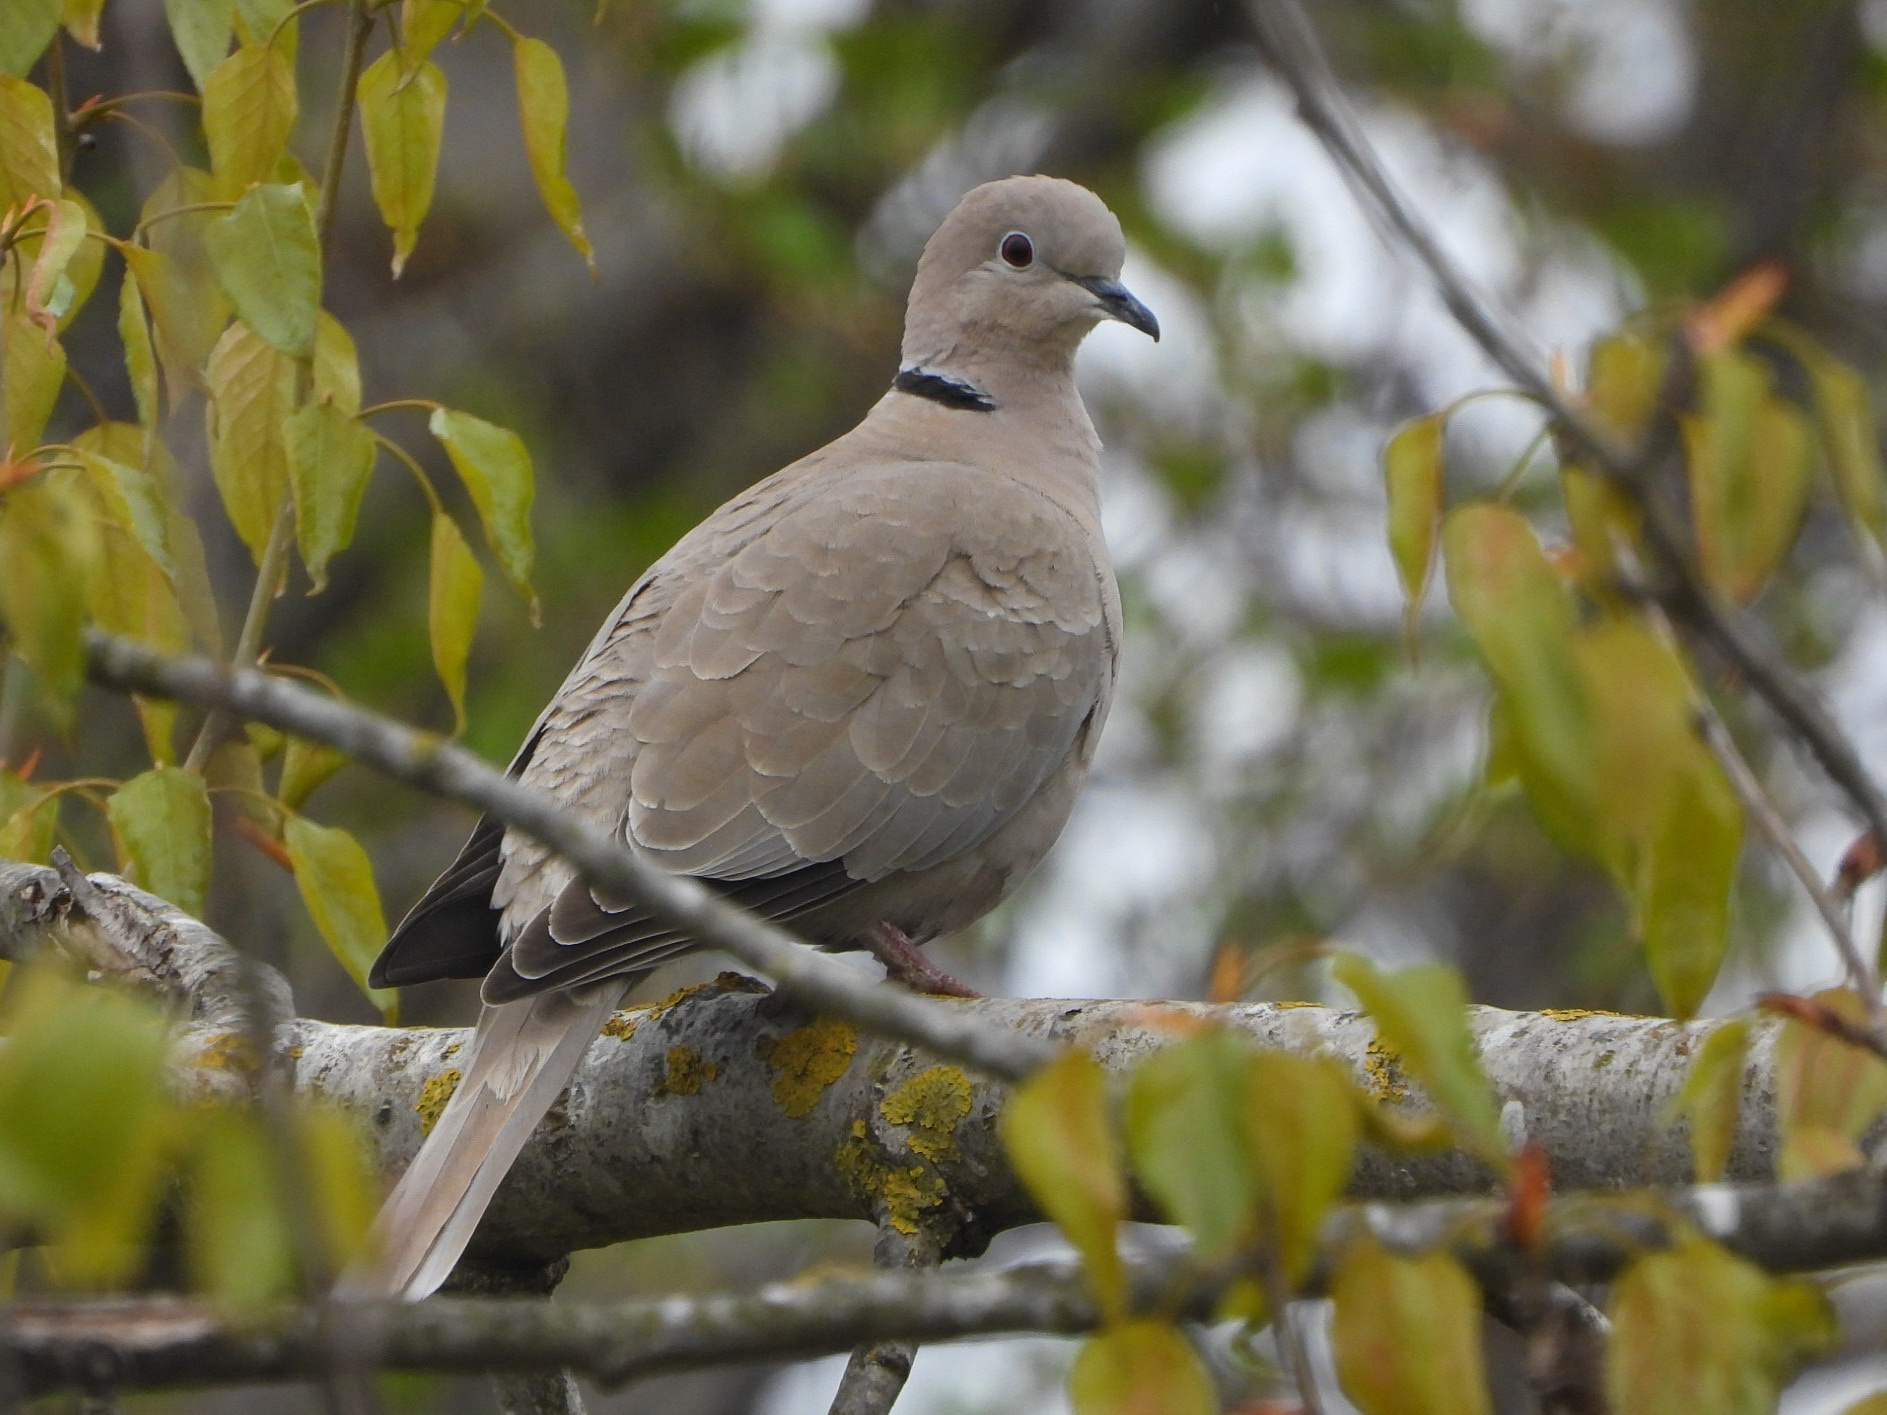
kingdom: Animalia
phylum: Chordata
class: Aves
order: Columbiformes
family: Columbidae
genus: Streptopelia
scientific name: Streptopelia decaocto
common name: Eurasian collared dove
